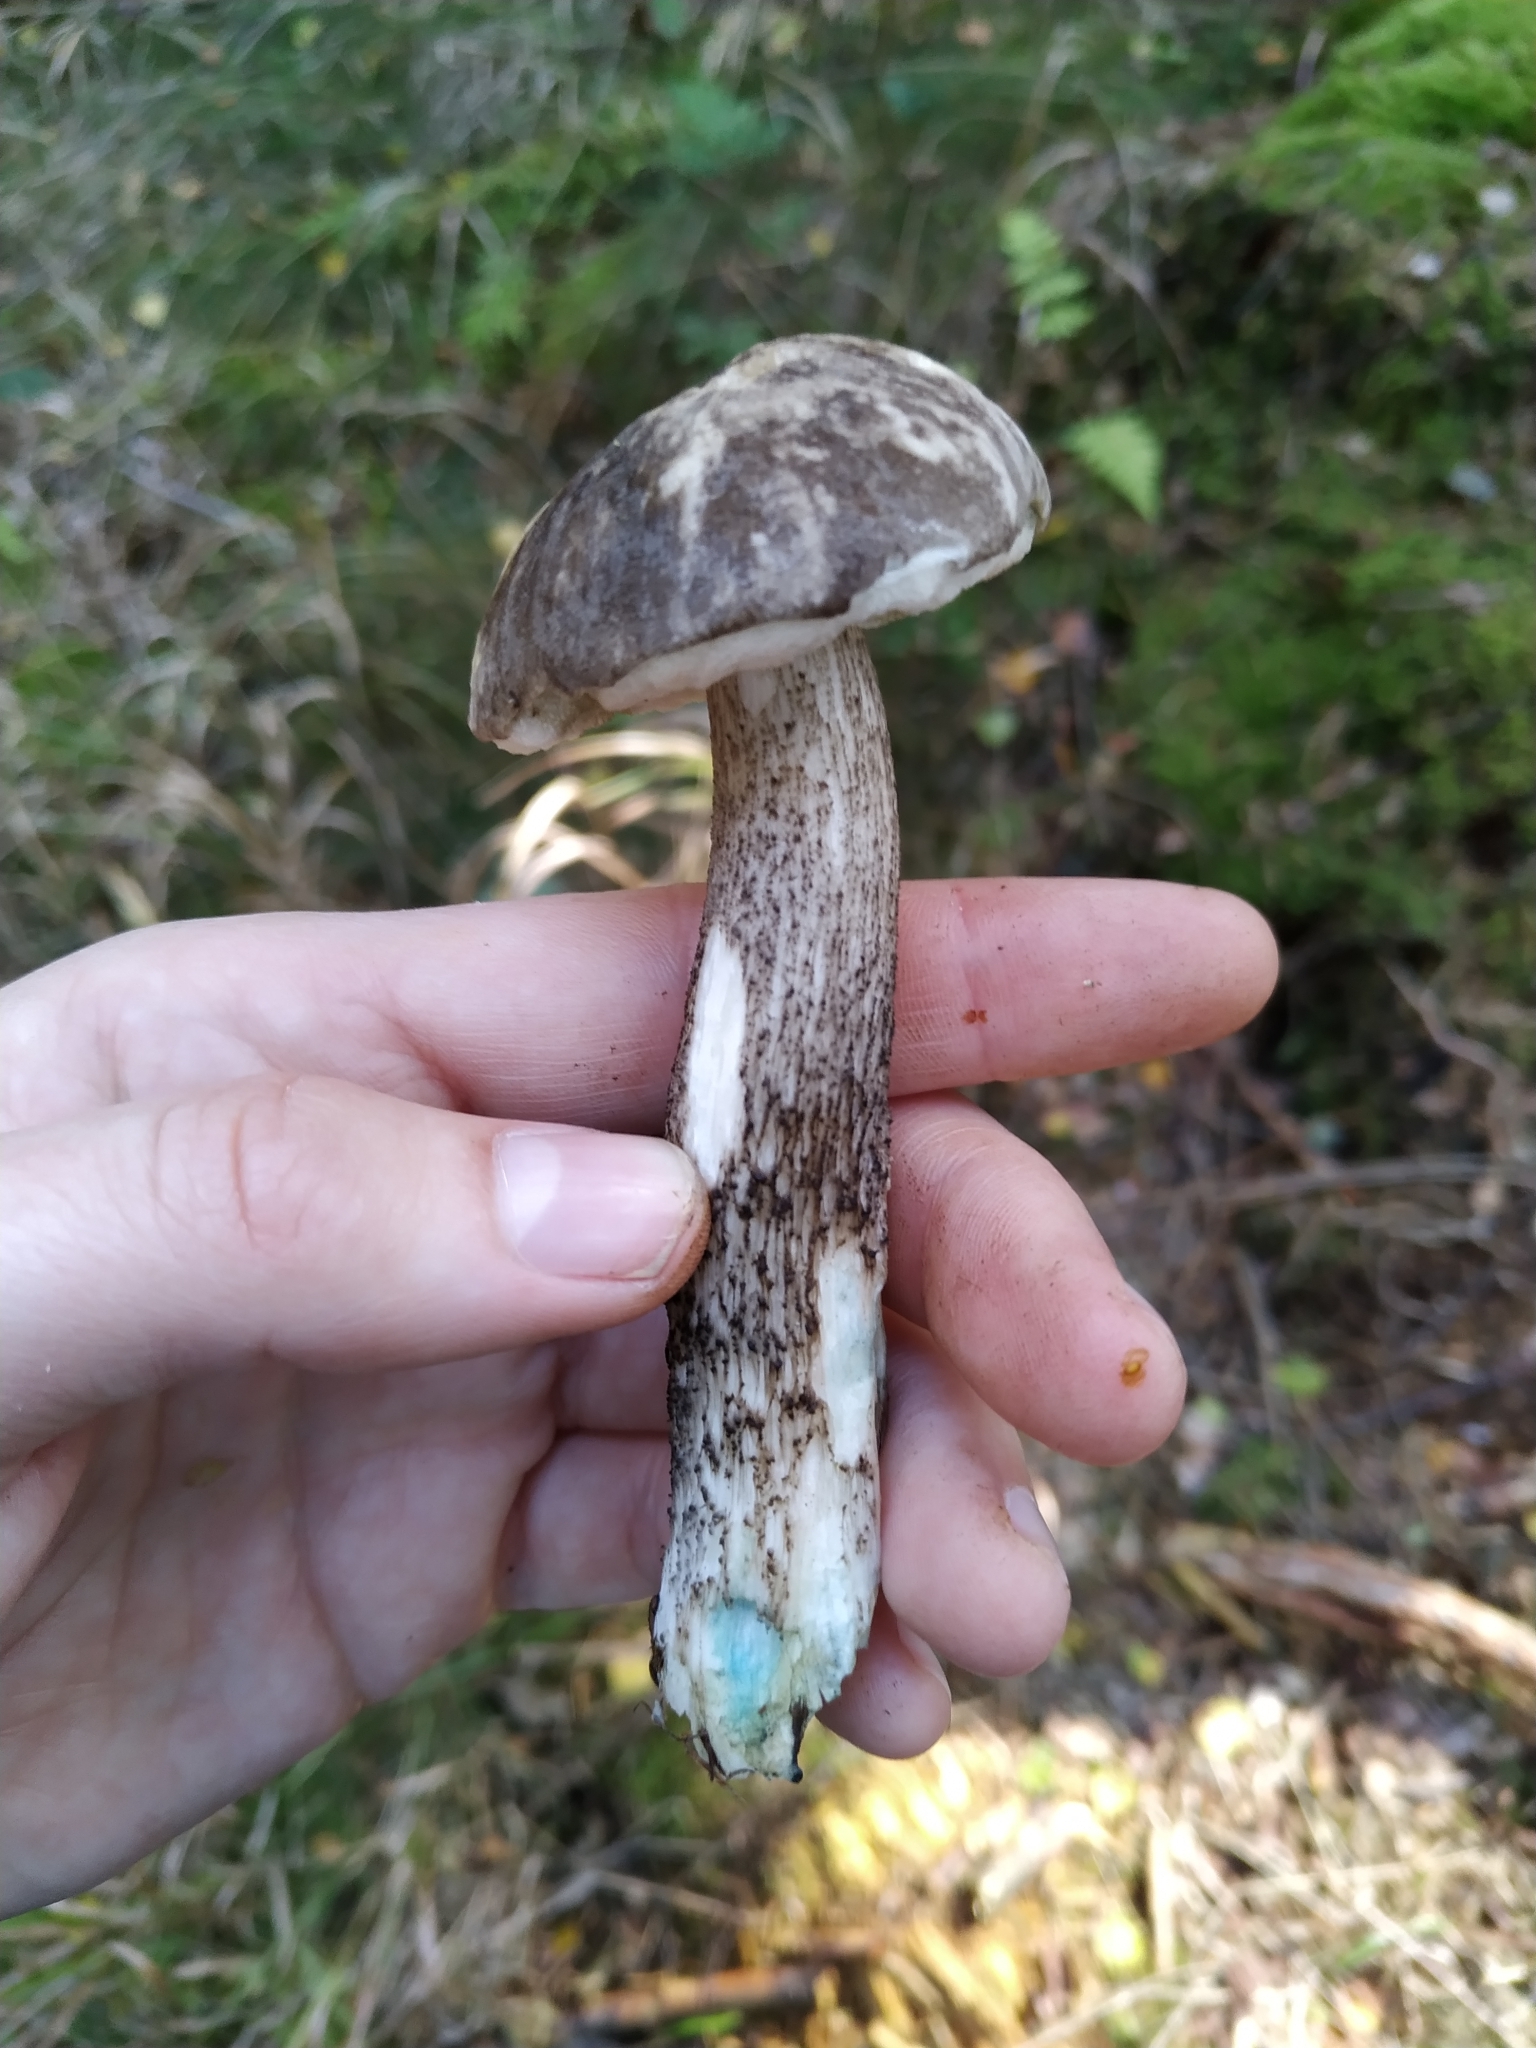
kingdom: Fungi
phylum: Basidiomycota
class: Agaricomycetes
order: Boletales
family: Boletaceae
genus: Leccinum
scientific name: Leccinum variicolor
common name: Mottled bolete
